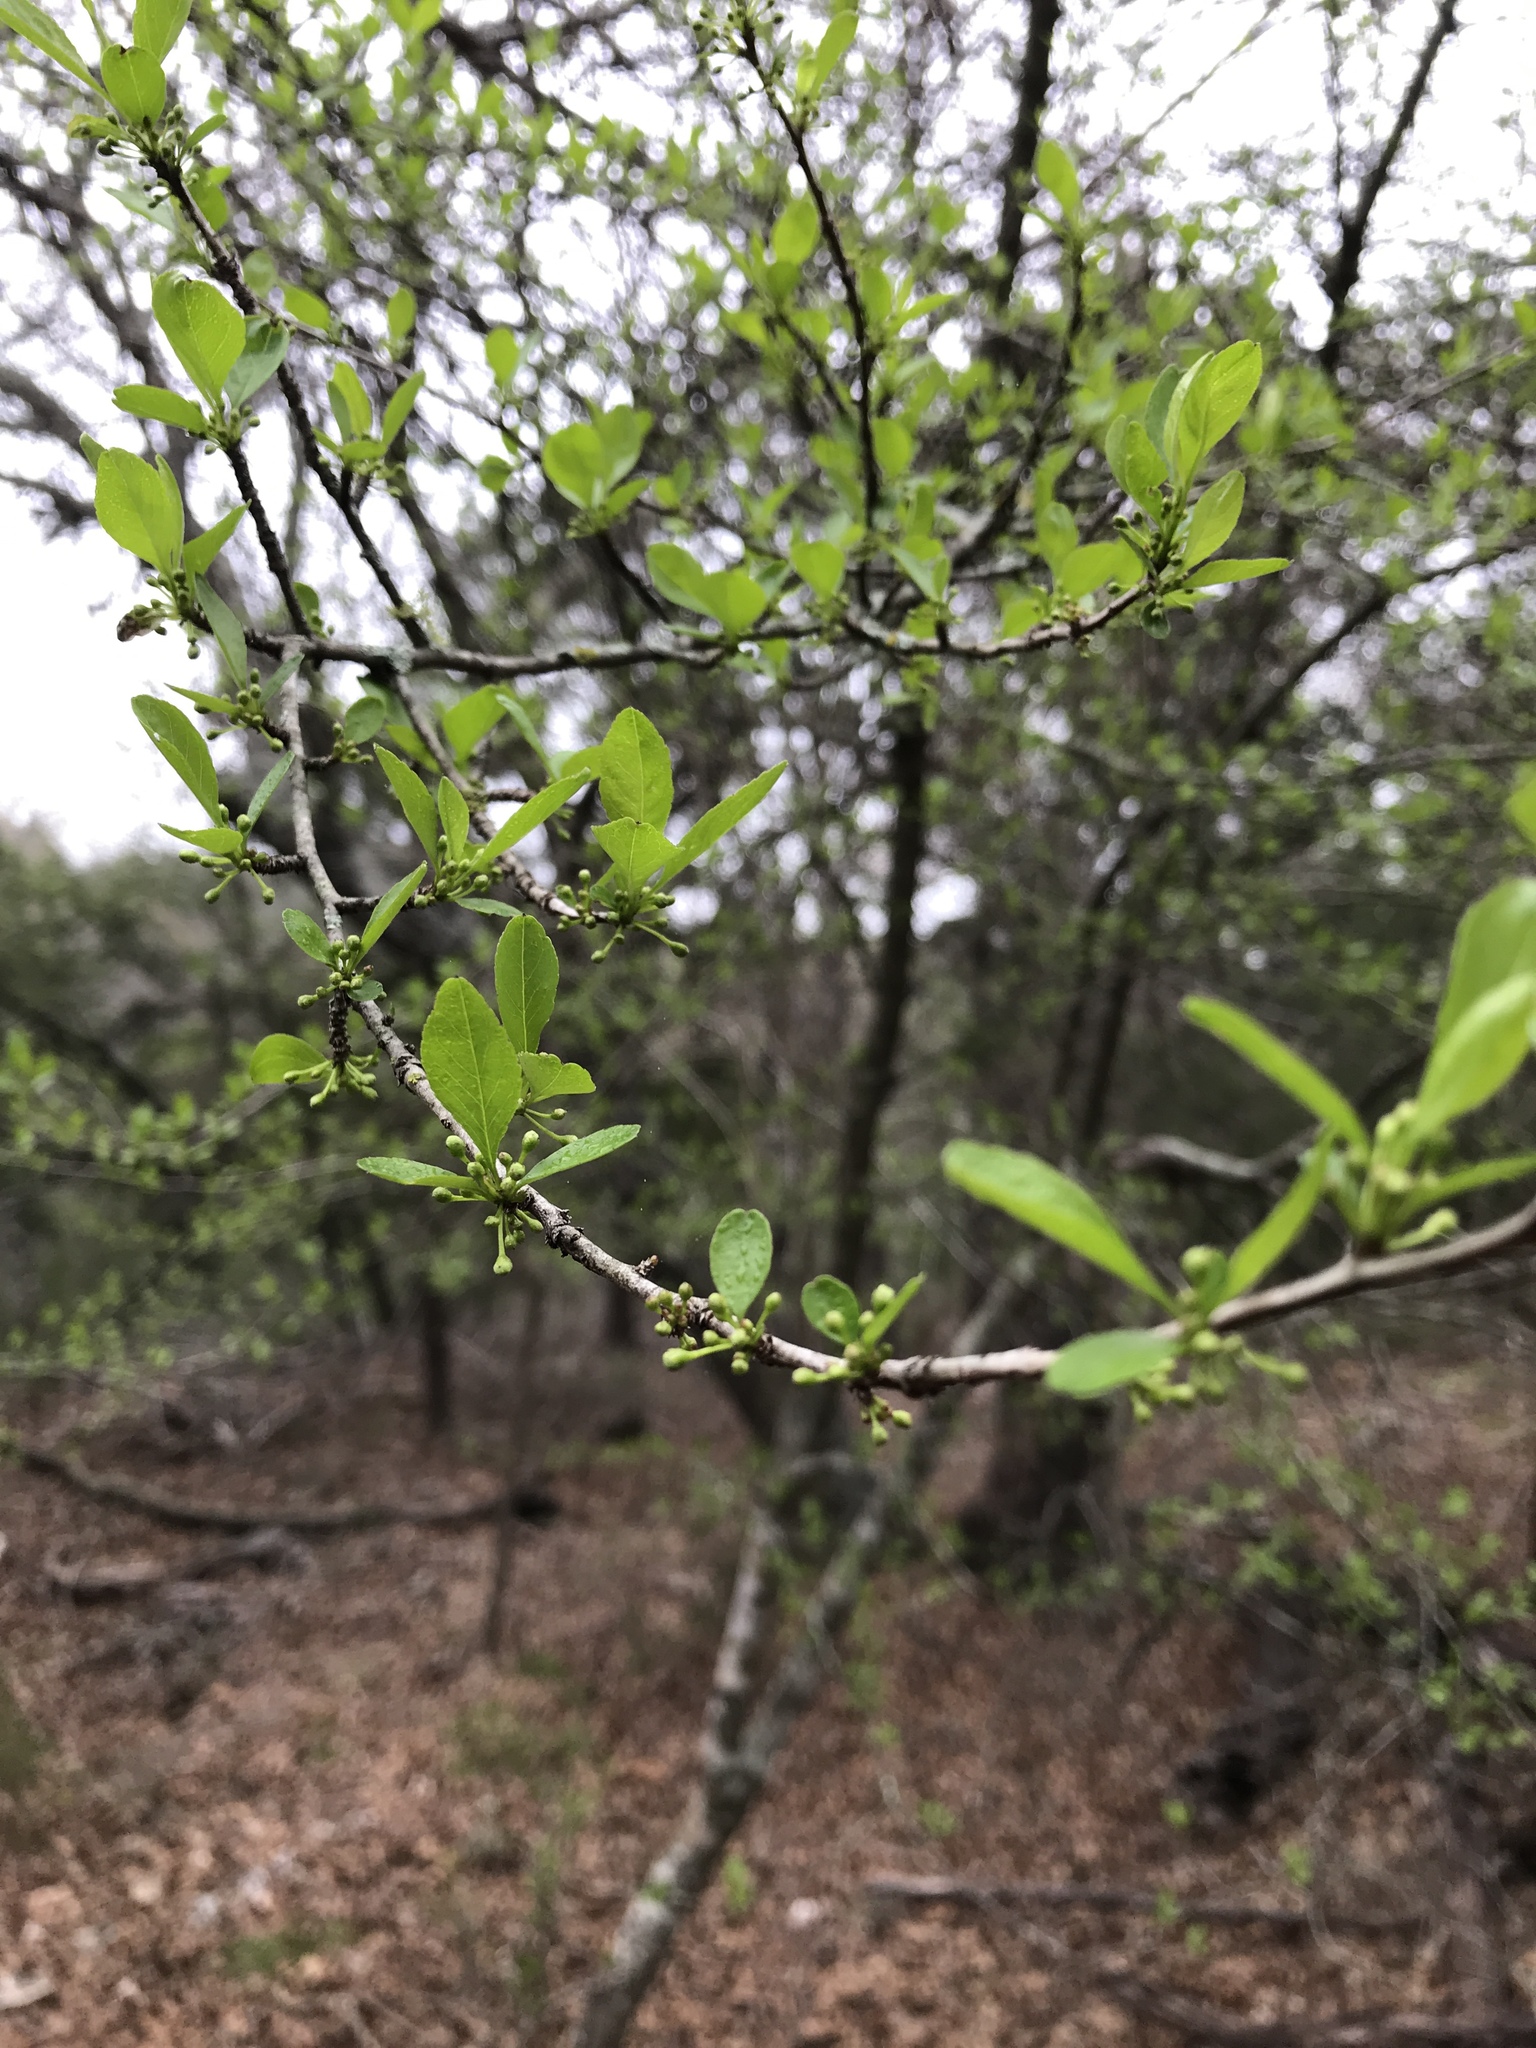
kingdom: Plantae
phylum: Tracheophyta
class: Magnoliopsida
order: Aquifoliales
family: Aquifoliaceae
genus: Ilex
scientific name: Ilex decidua
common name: Possum-haw
